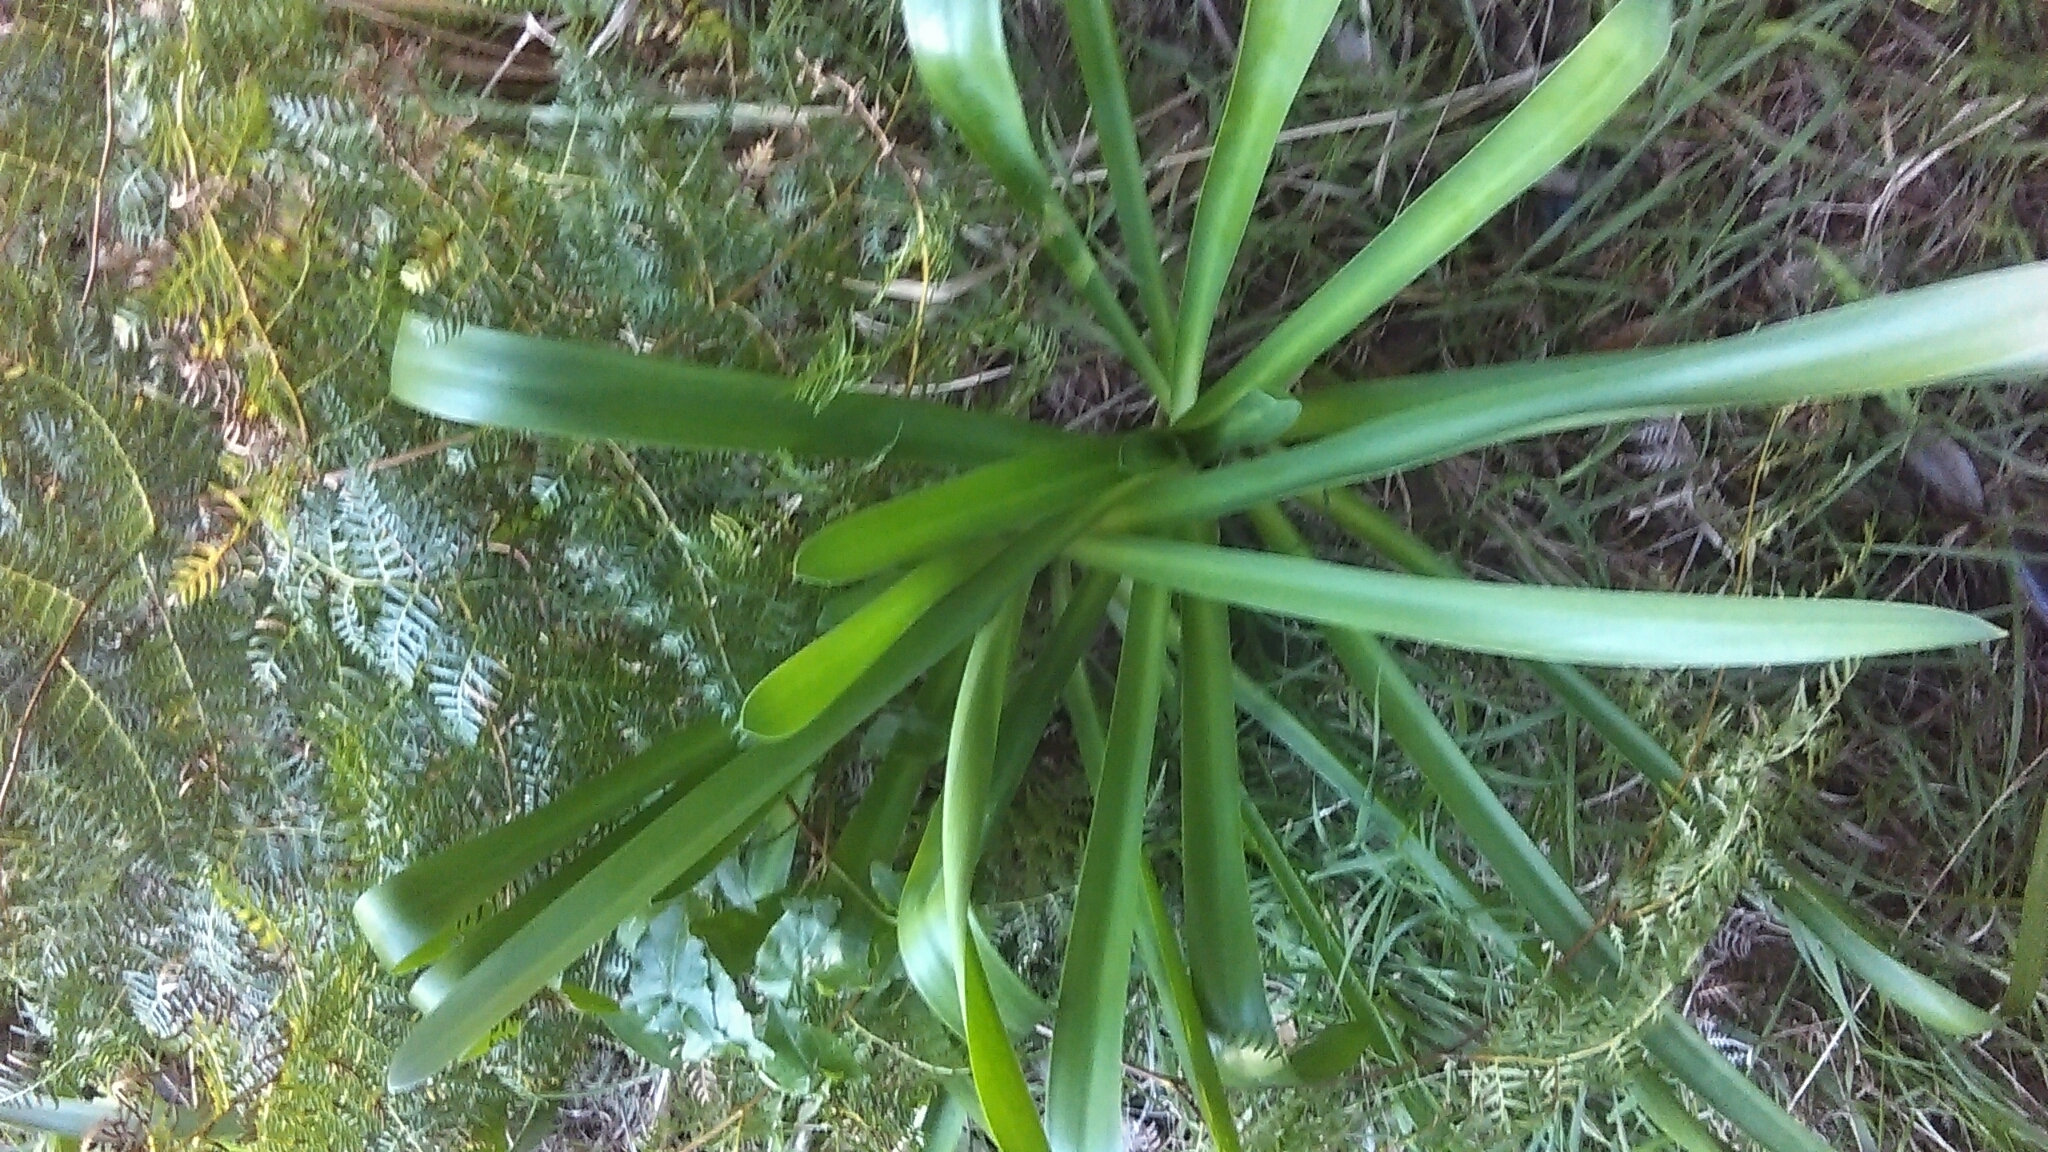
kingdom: Plantae
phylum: Tracheophyta
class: Liliopsida
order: Asparagales
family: Amaryllidaceae
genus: Agapanthus
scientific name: Agapanthus praecox
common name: African-lily
